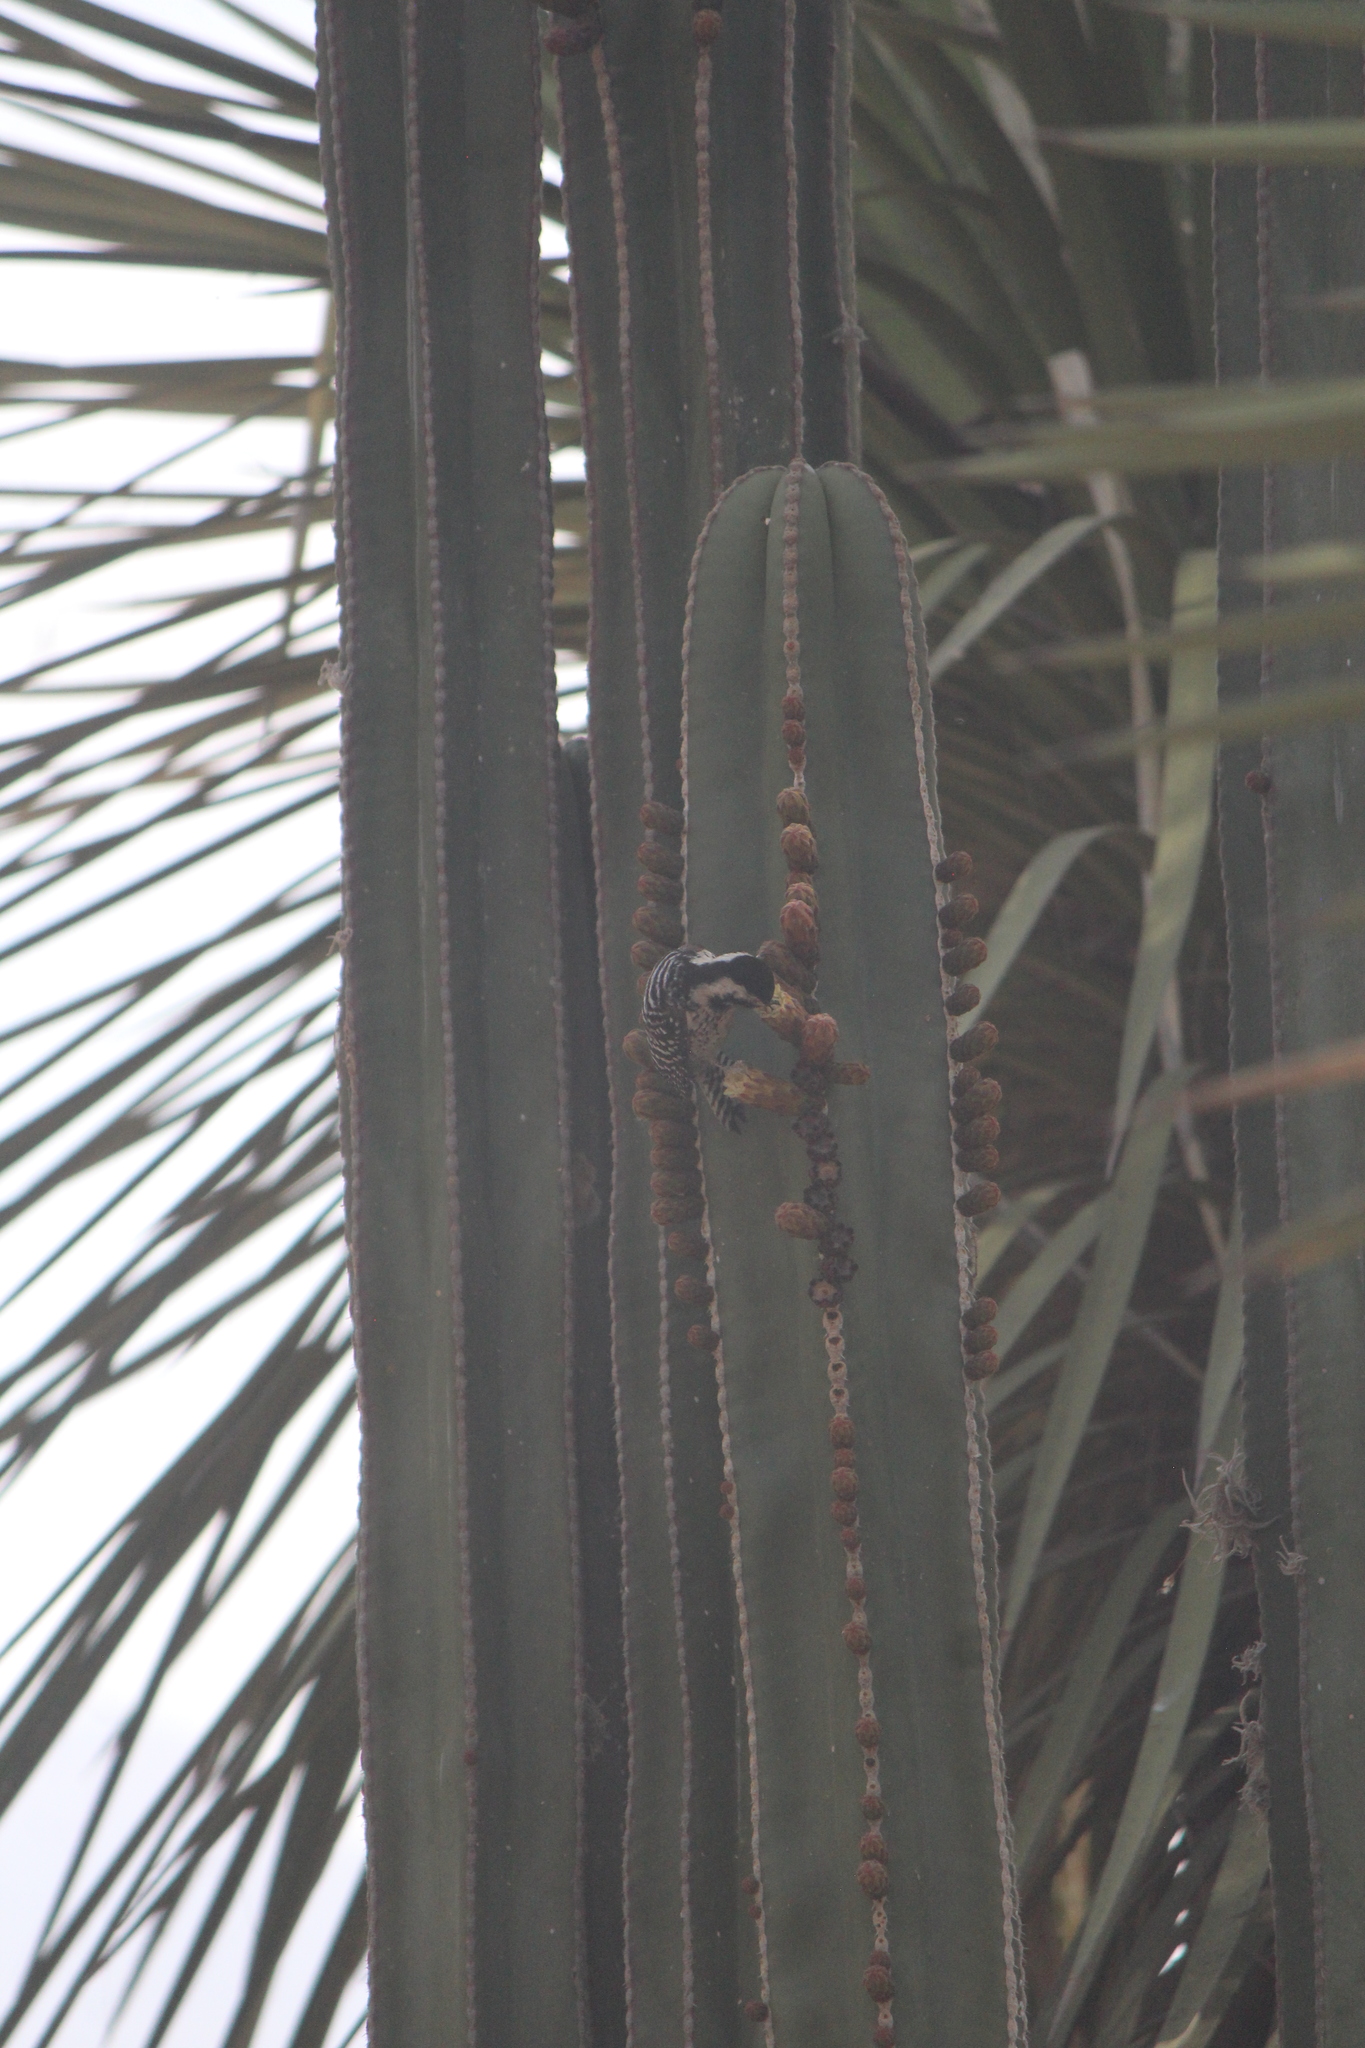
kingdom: Animalia
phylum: Chordata
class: Aves
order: Piciformes
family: Picidae
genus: Dryobates
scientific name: Dryobates scalaris
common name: Ladder-backed woodpecker
